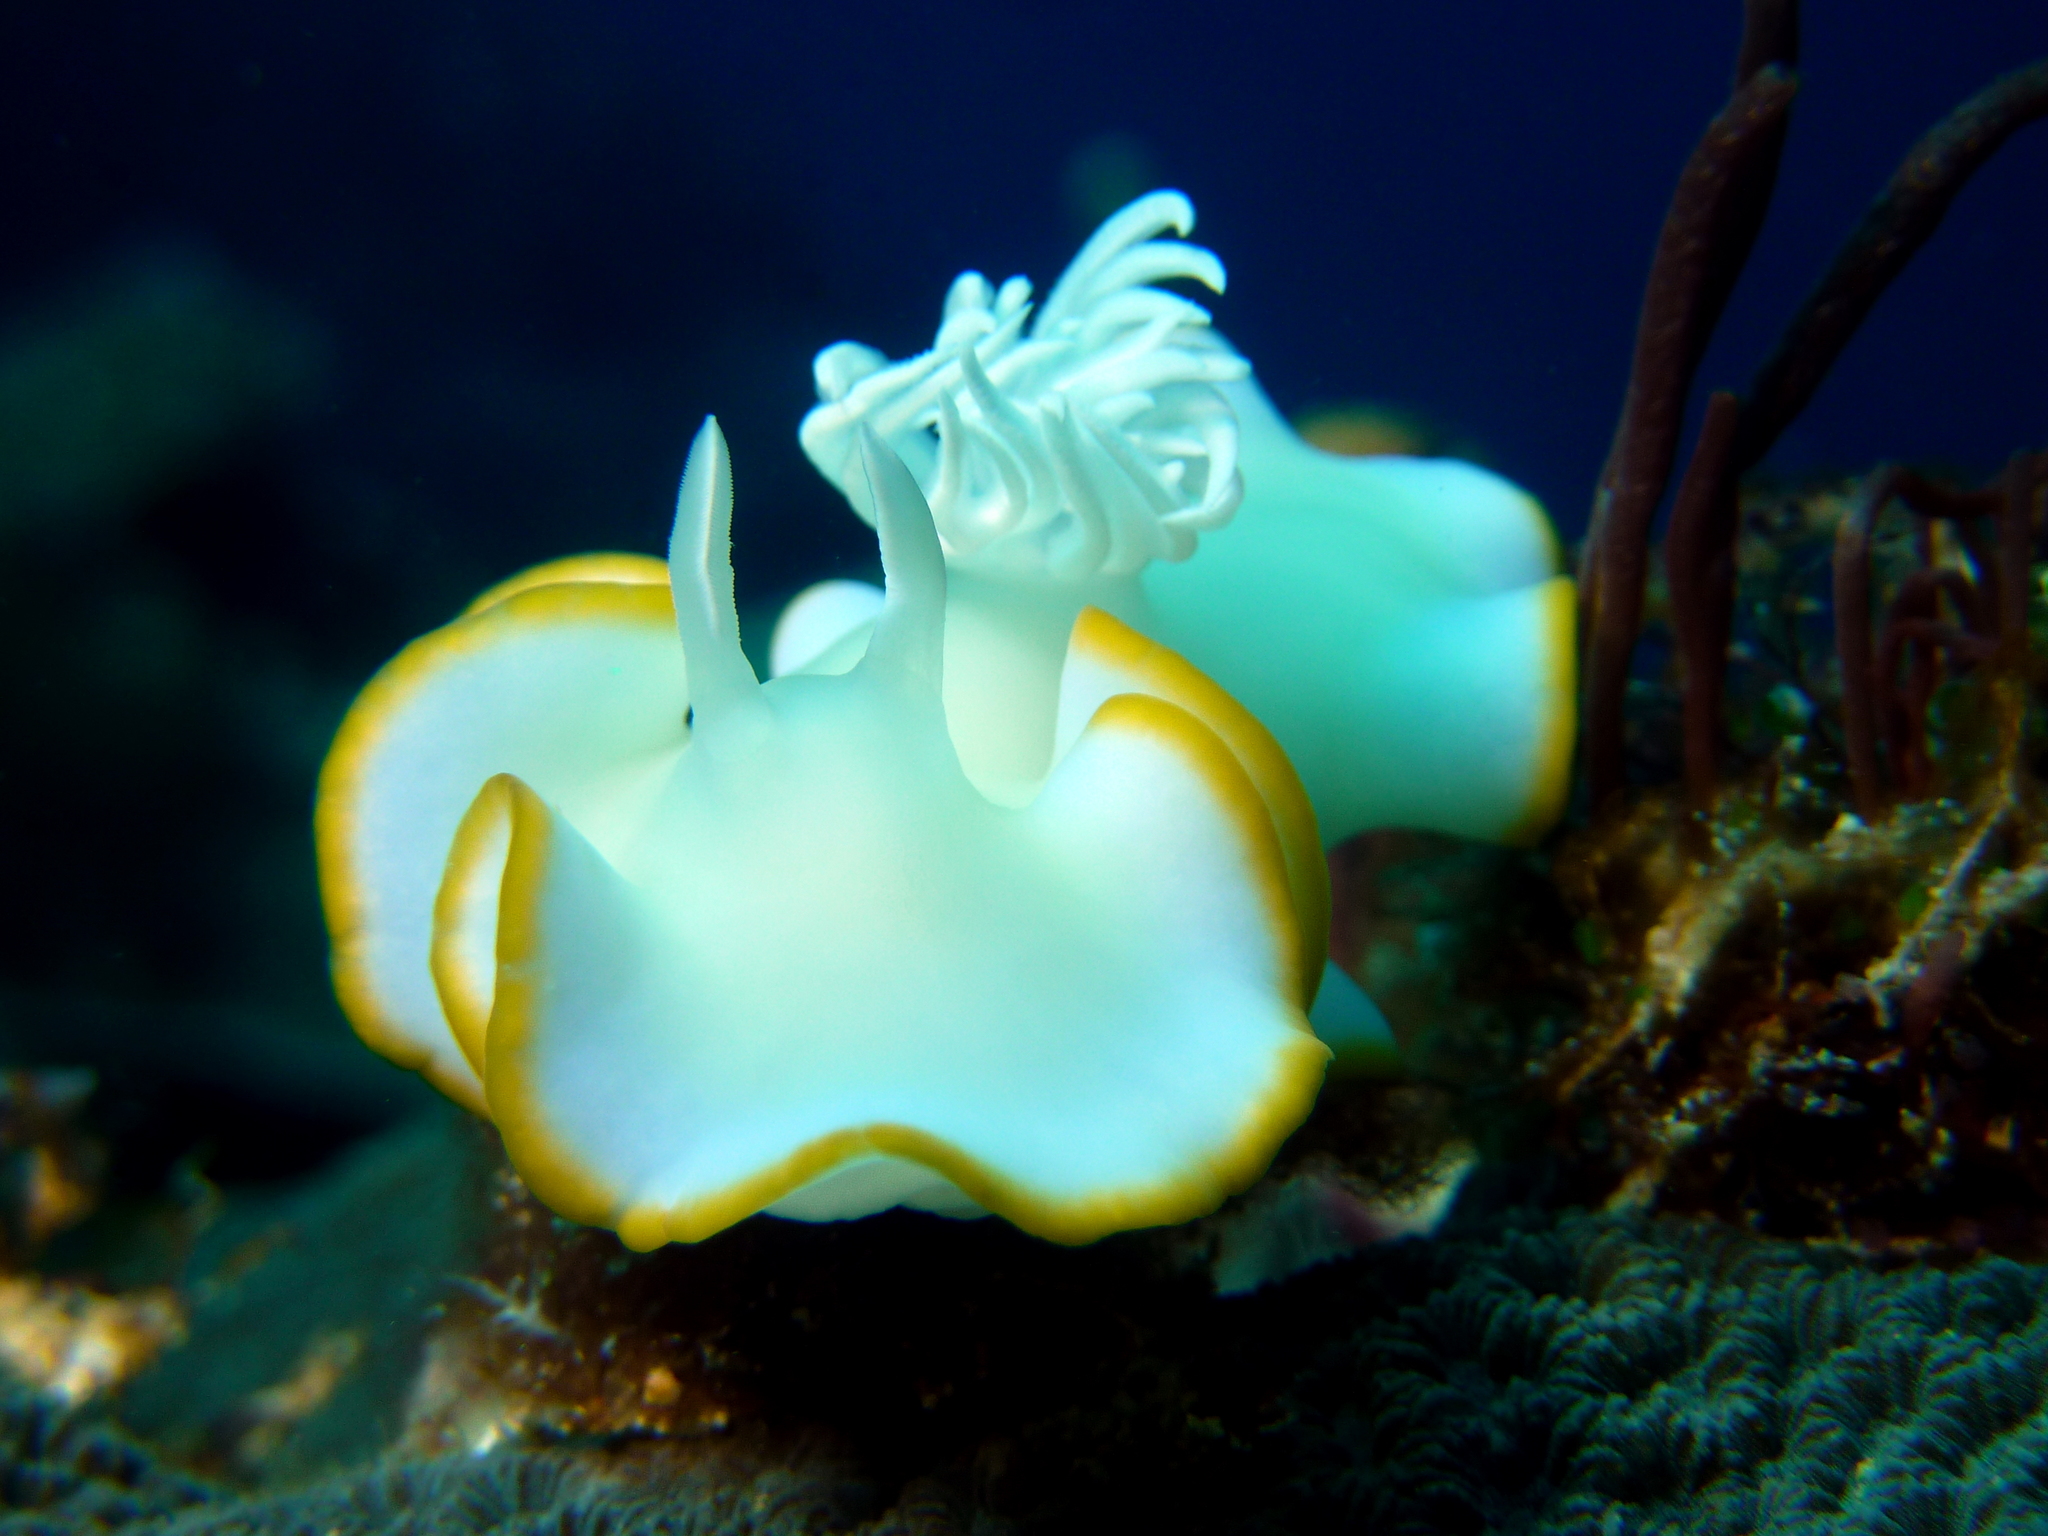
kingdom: Animalia
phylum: Mollusca
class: Gastropoda
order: Nudibranchia
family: Chromodorididae
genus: Ardeadoris
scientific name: Ardeadoris egretta
